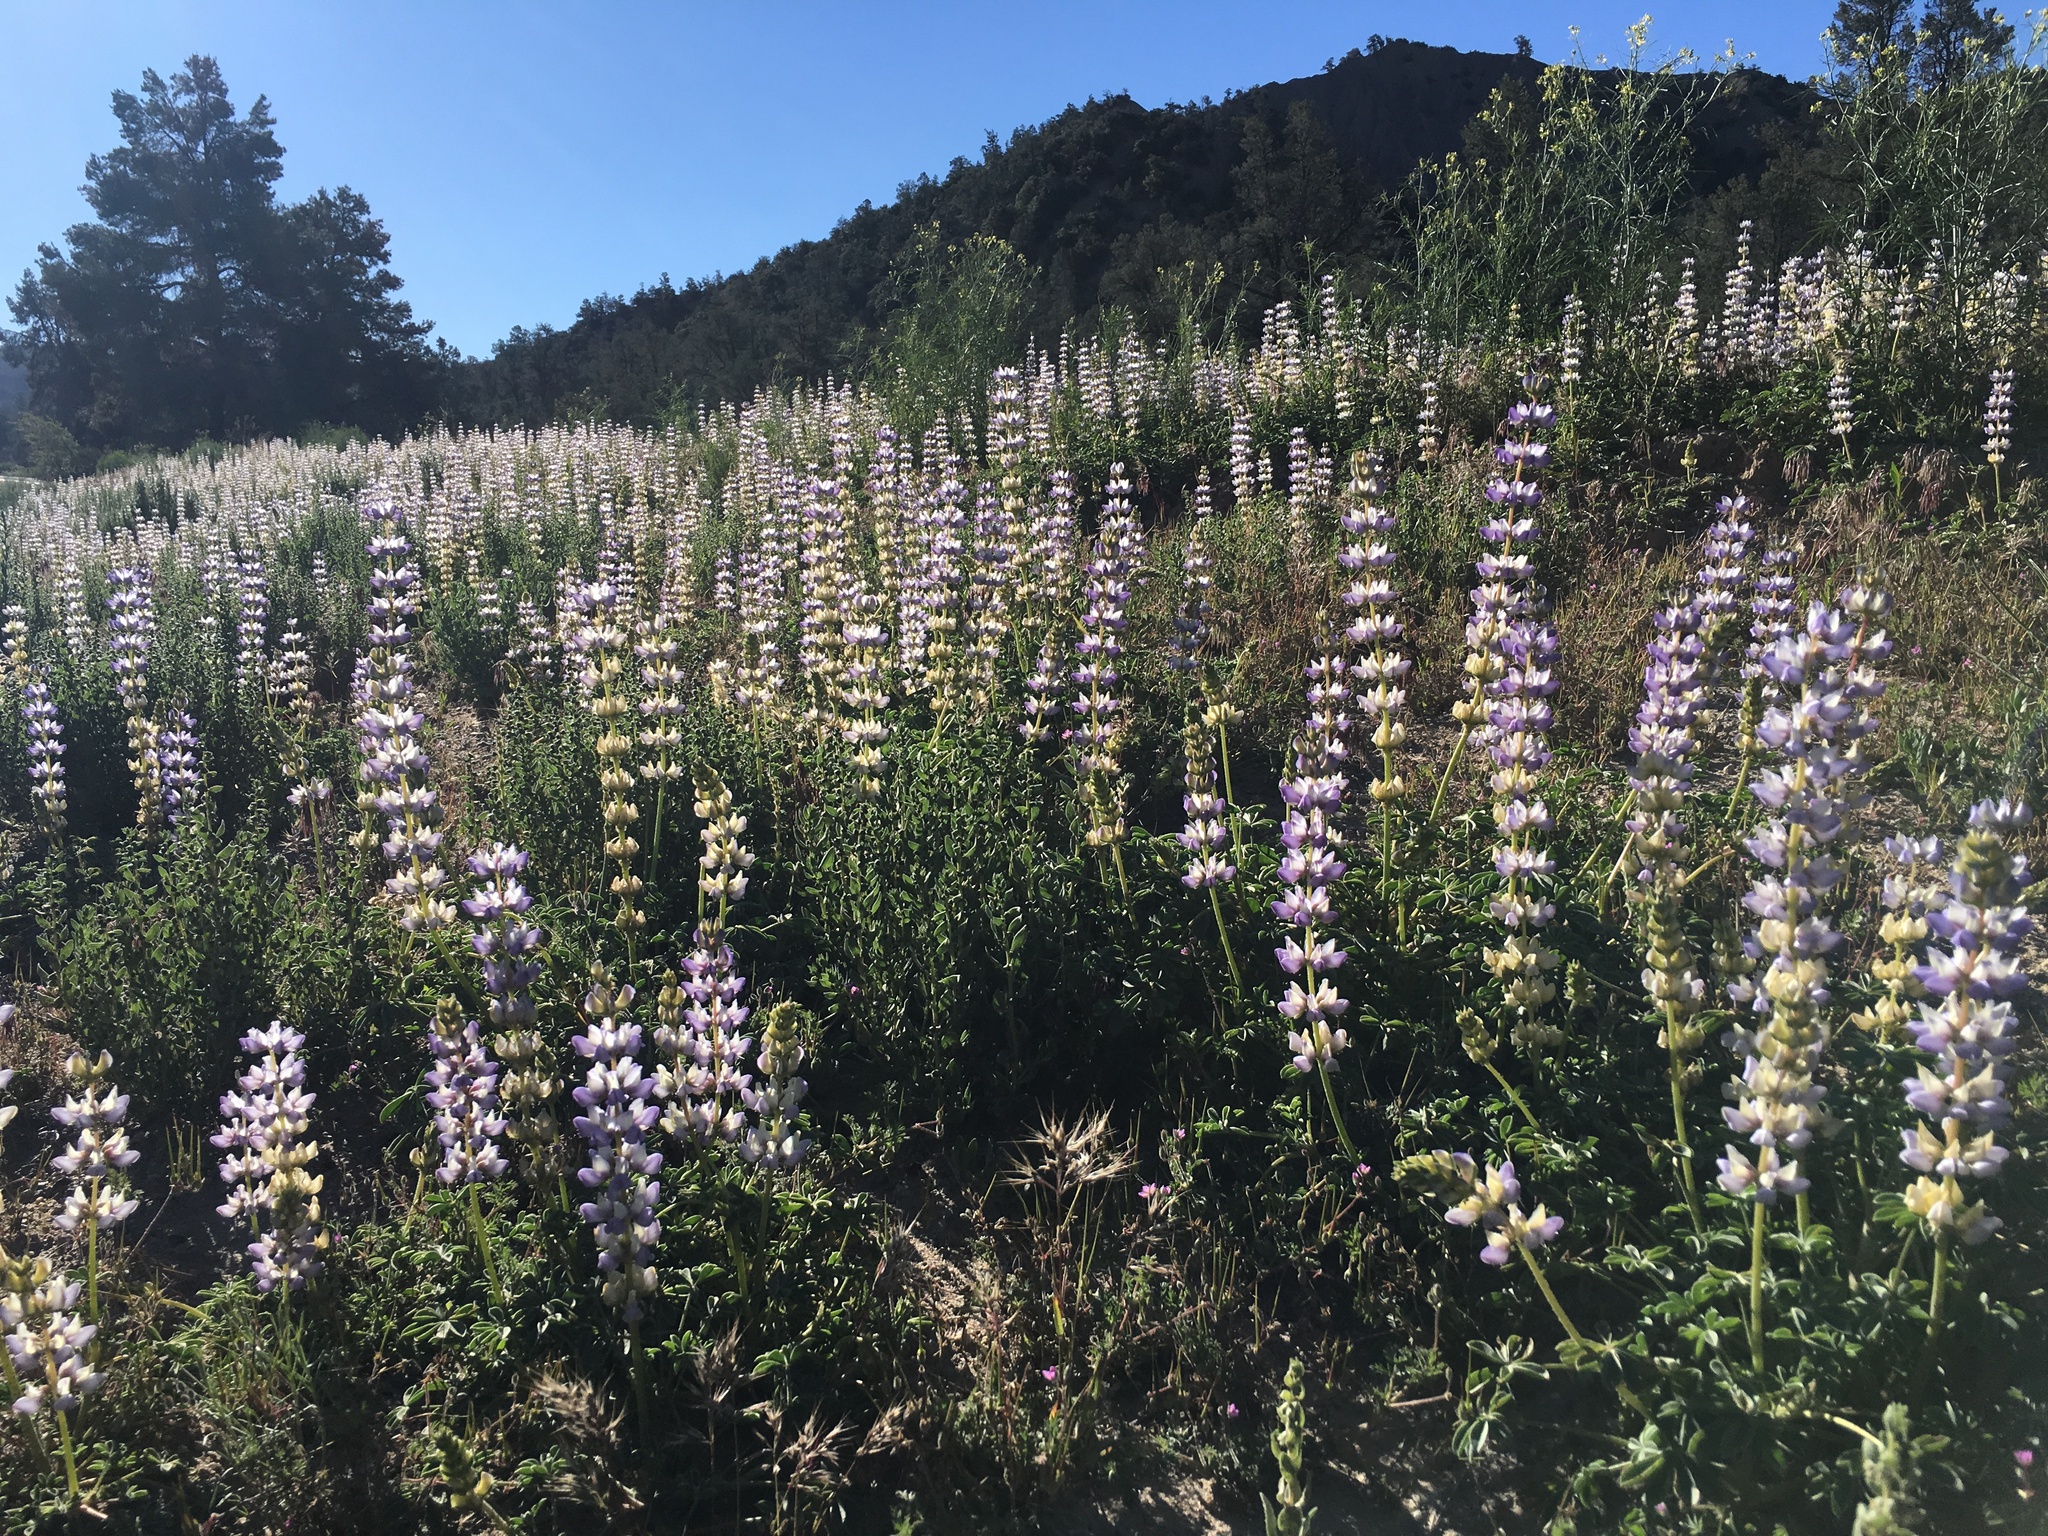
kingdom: Plantae
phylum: Tracheophyta
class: Magnoliopsida
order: Fabales
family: Fabaceae
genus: Lupinus
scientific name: Lupinus microcarpus
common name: Chick lupine
